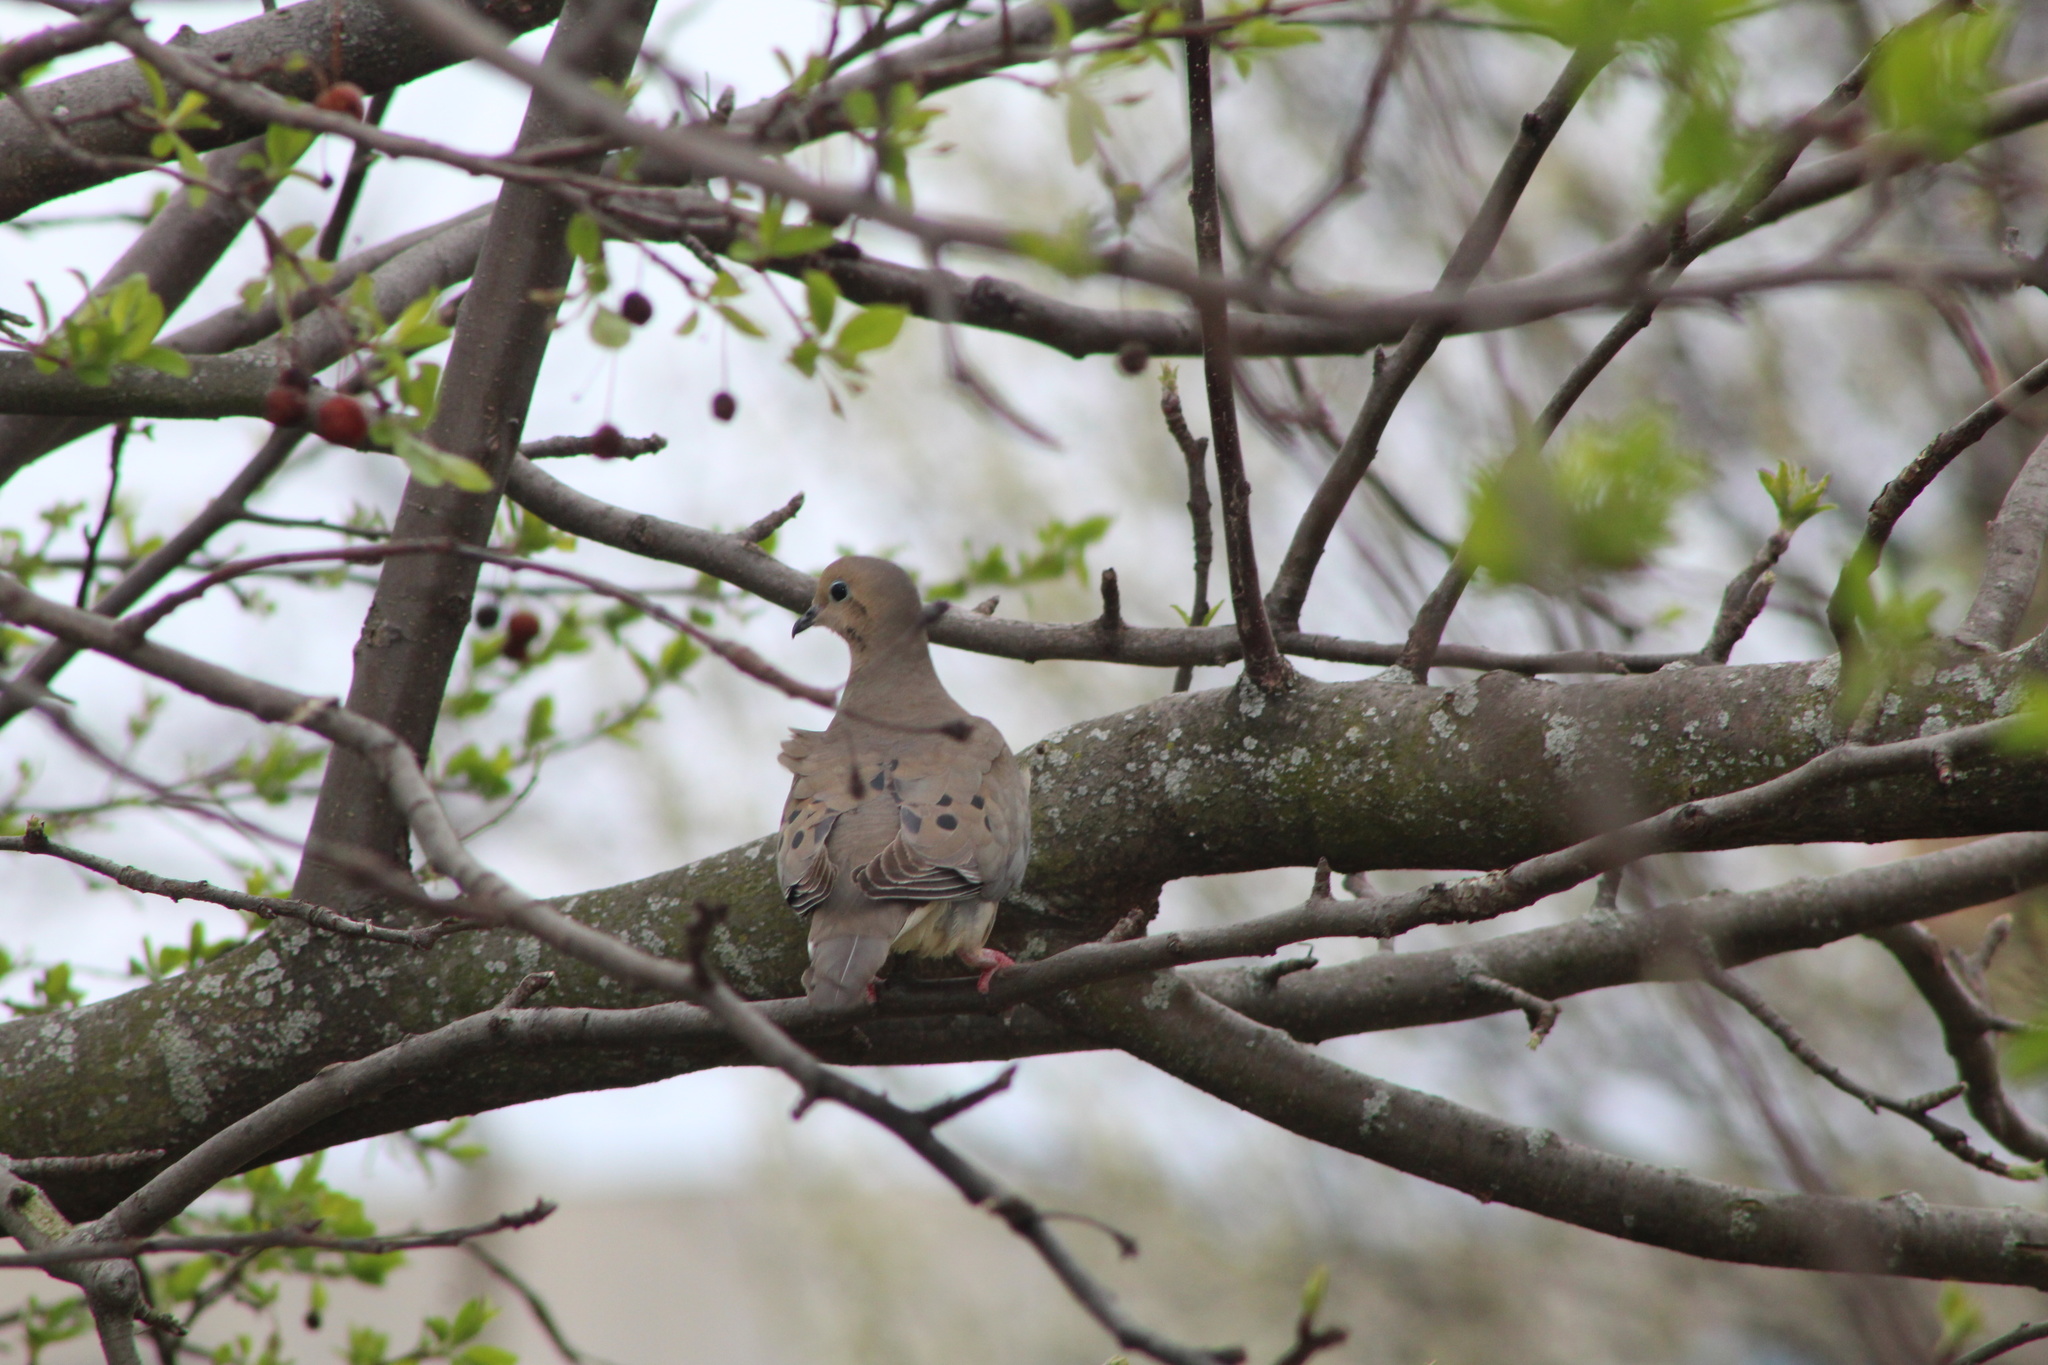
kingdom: Animalia
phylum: Chordata
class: Aves
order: Columbiformes
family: Columbidae
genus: Zenaida
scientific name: Zenaida macroura
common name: Mourning dove
